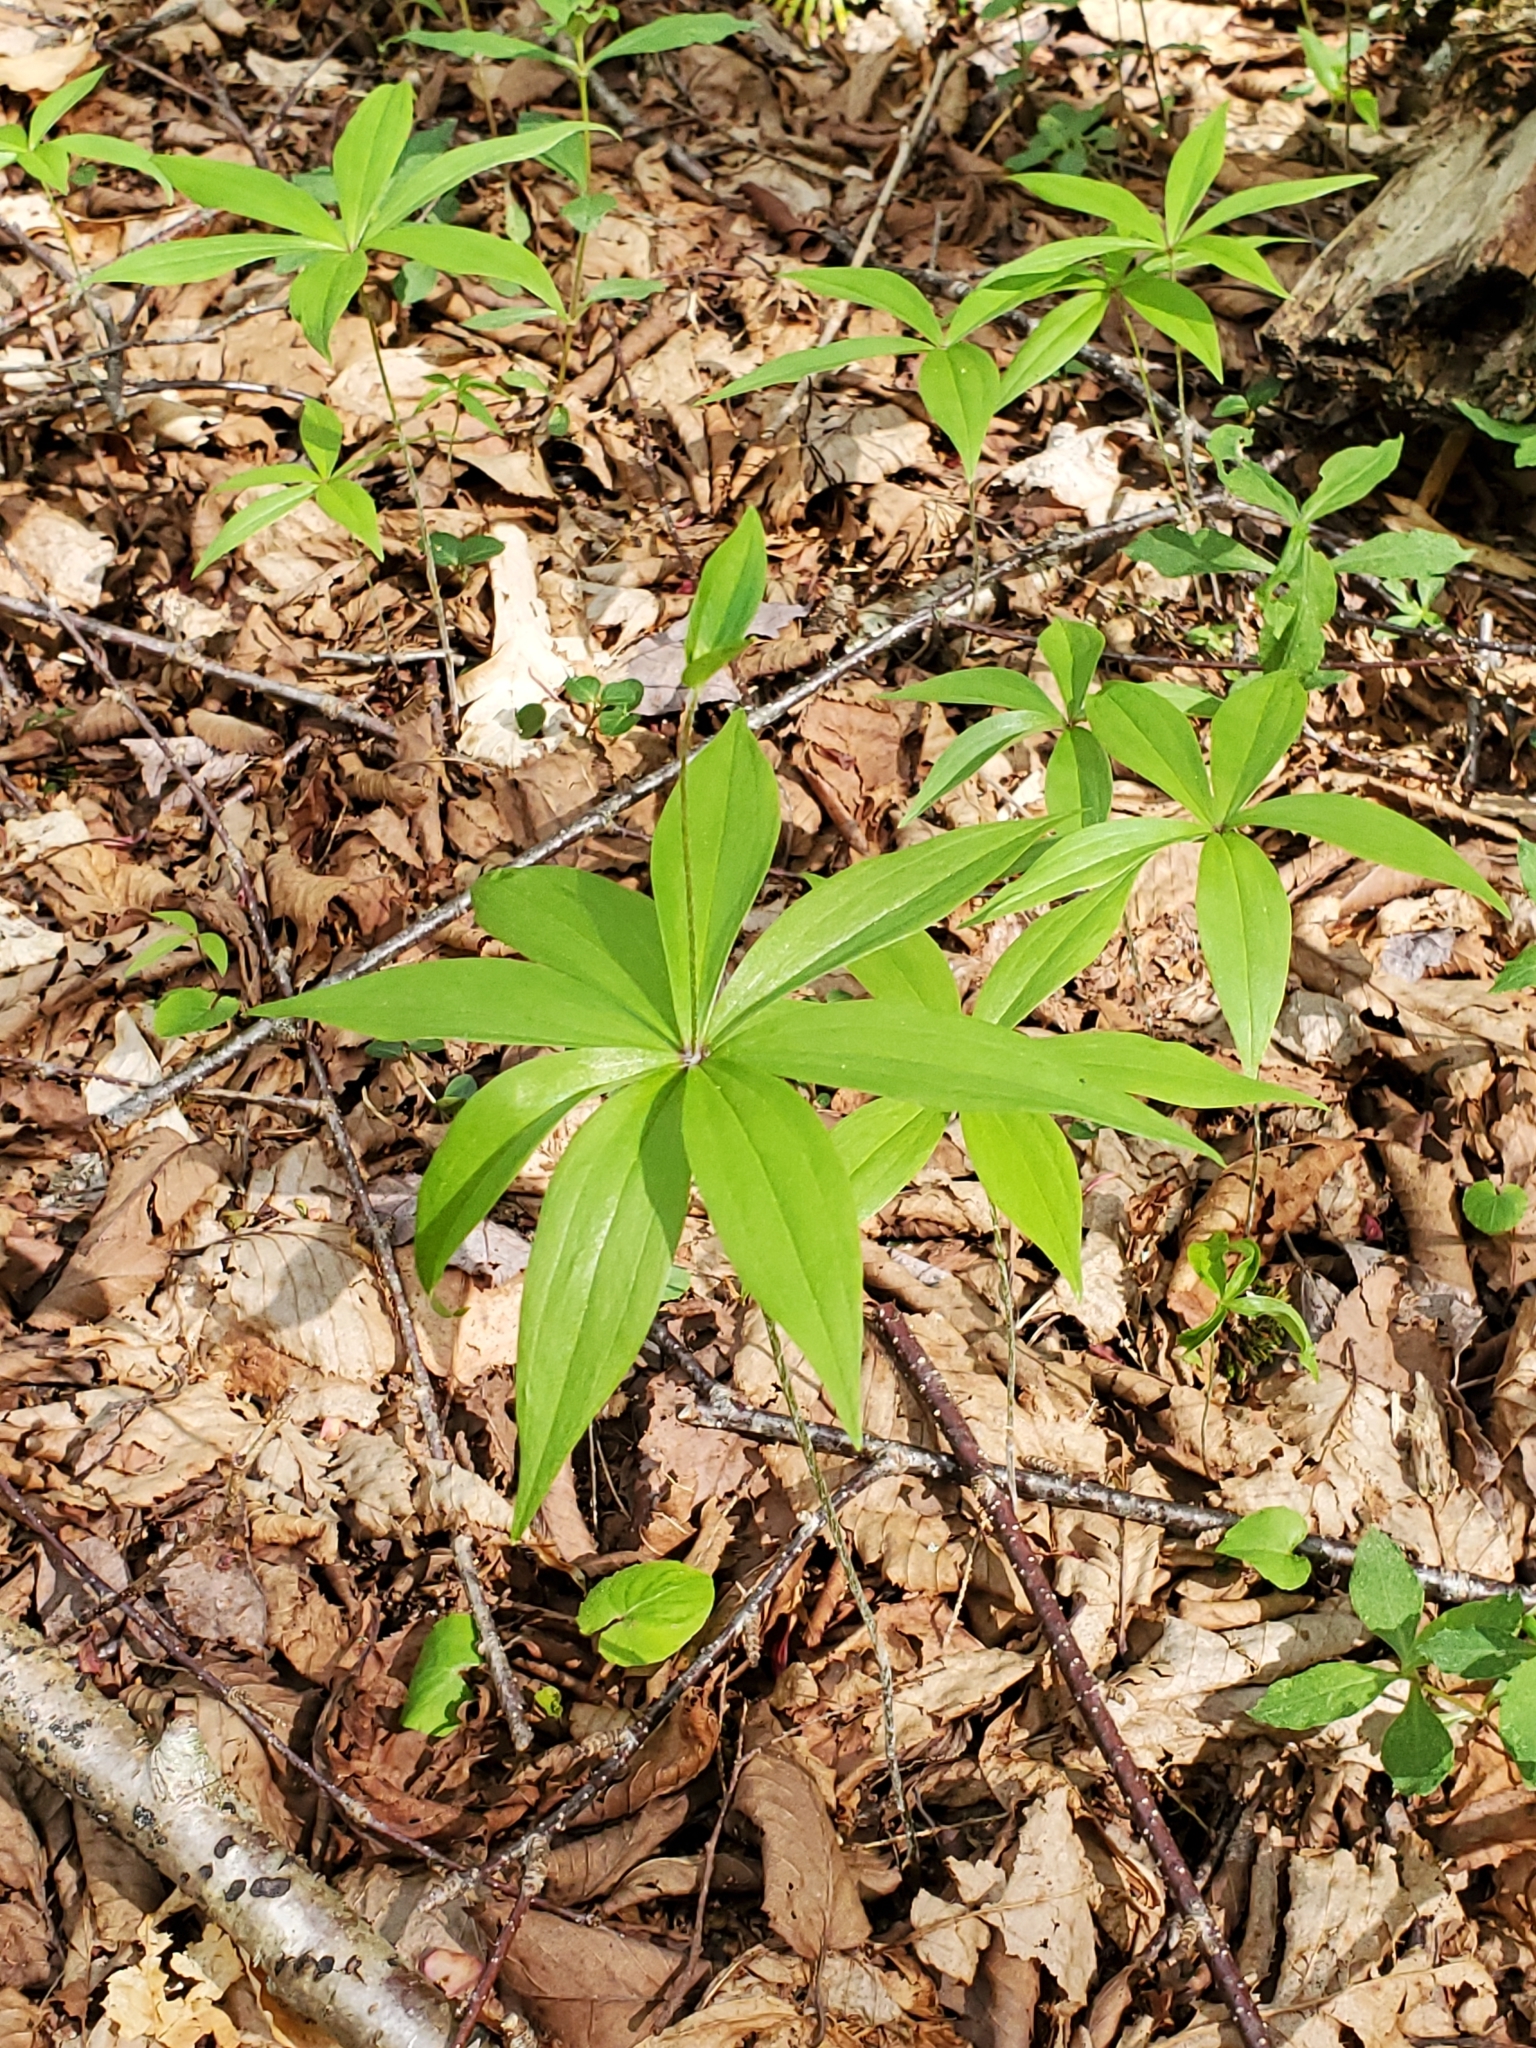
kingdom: Plantae
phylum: Tracheophyta
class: Liliopsida
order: Liliales
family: Liliaceae
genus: Medeola
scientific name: Medeola virginiana
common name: Indian cucumber-root
